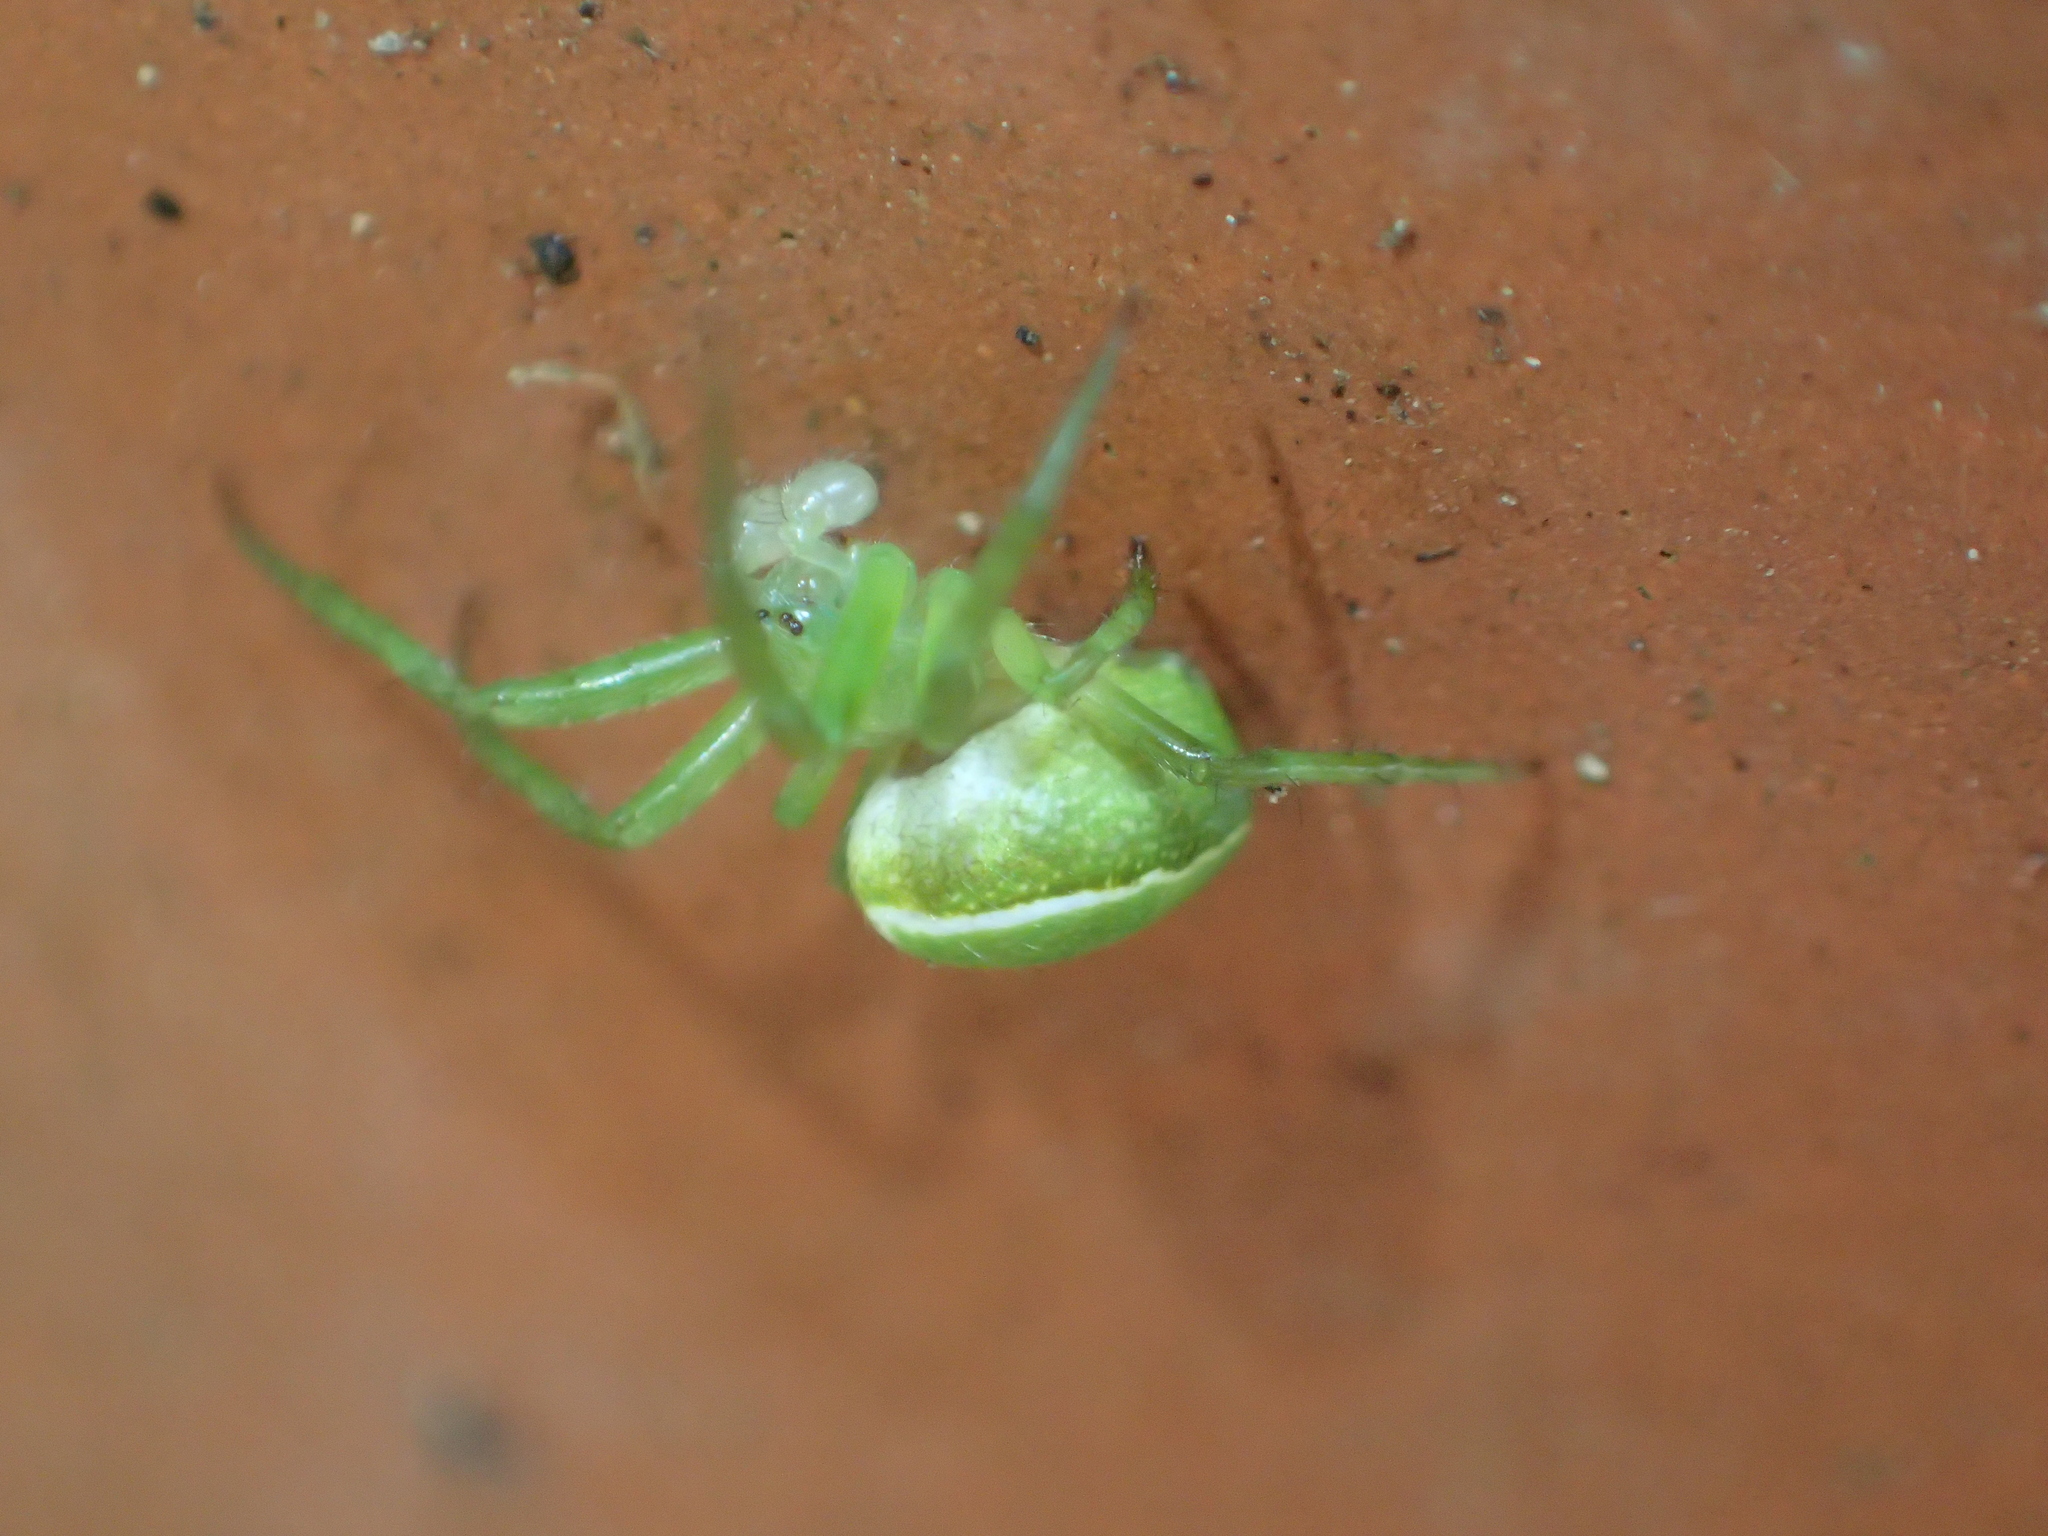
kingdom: Animalia
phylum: Arthropoda
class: Arachnida
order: Araneae
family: Araneidae
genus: Colaranea
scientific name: Colaranea viriditas
